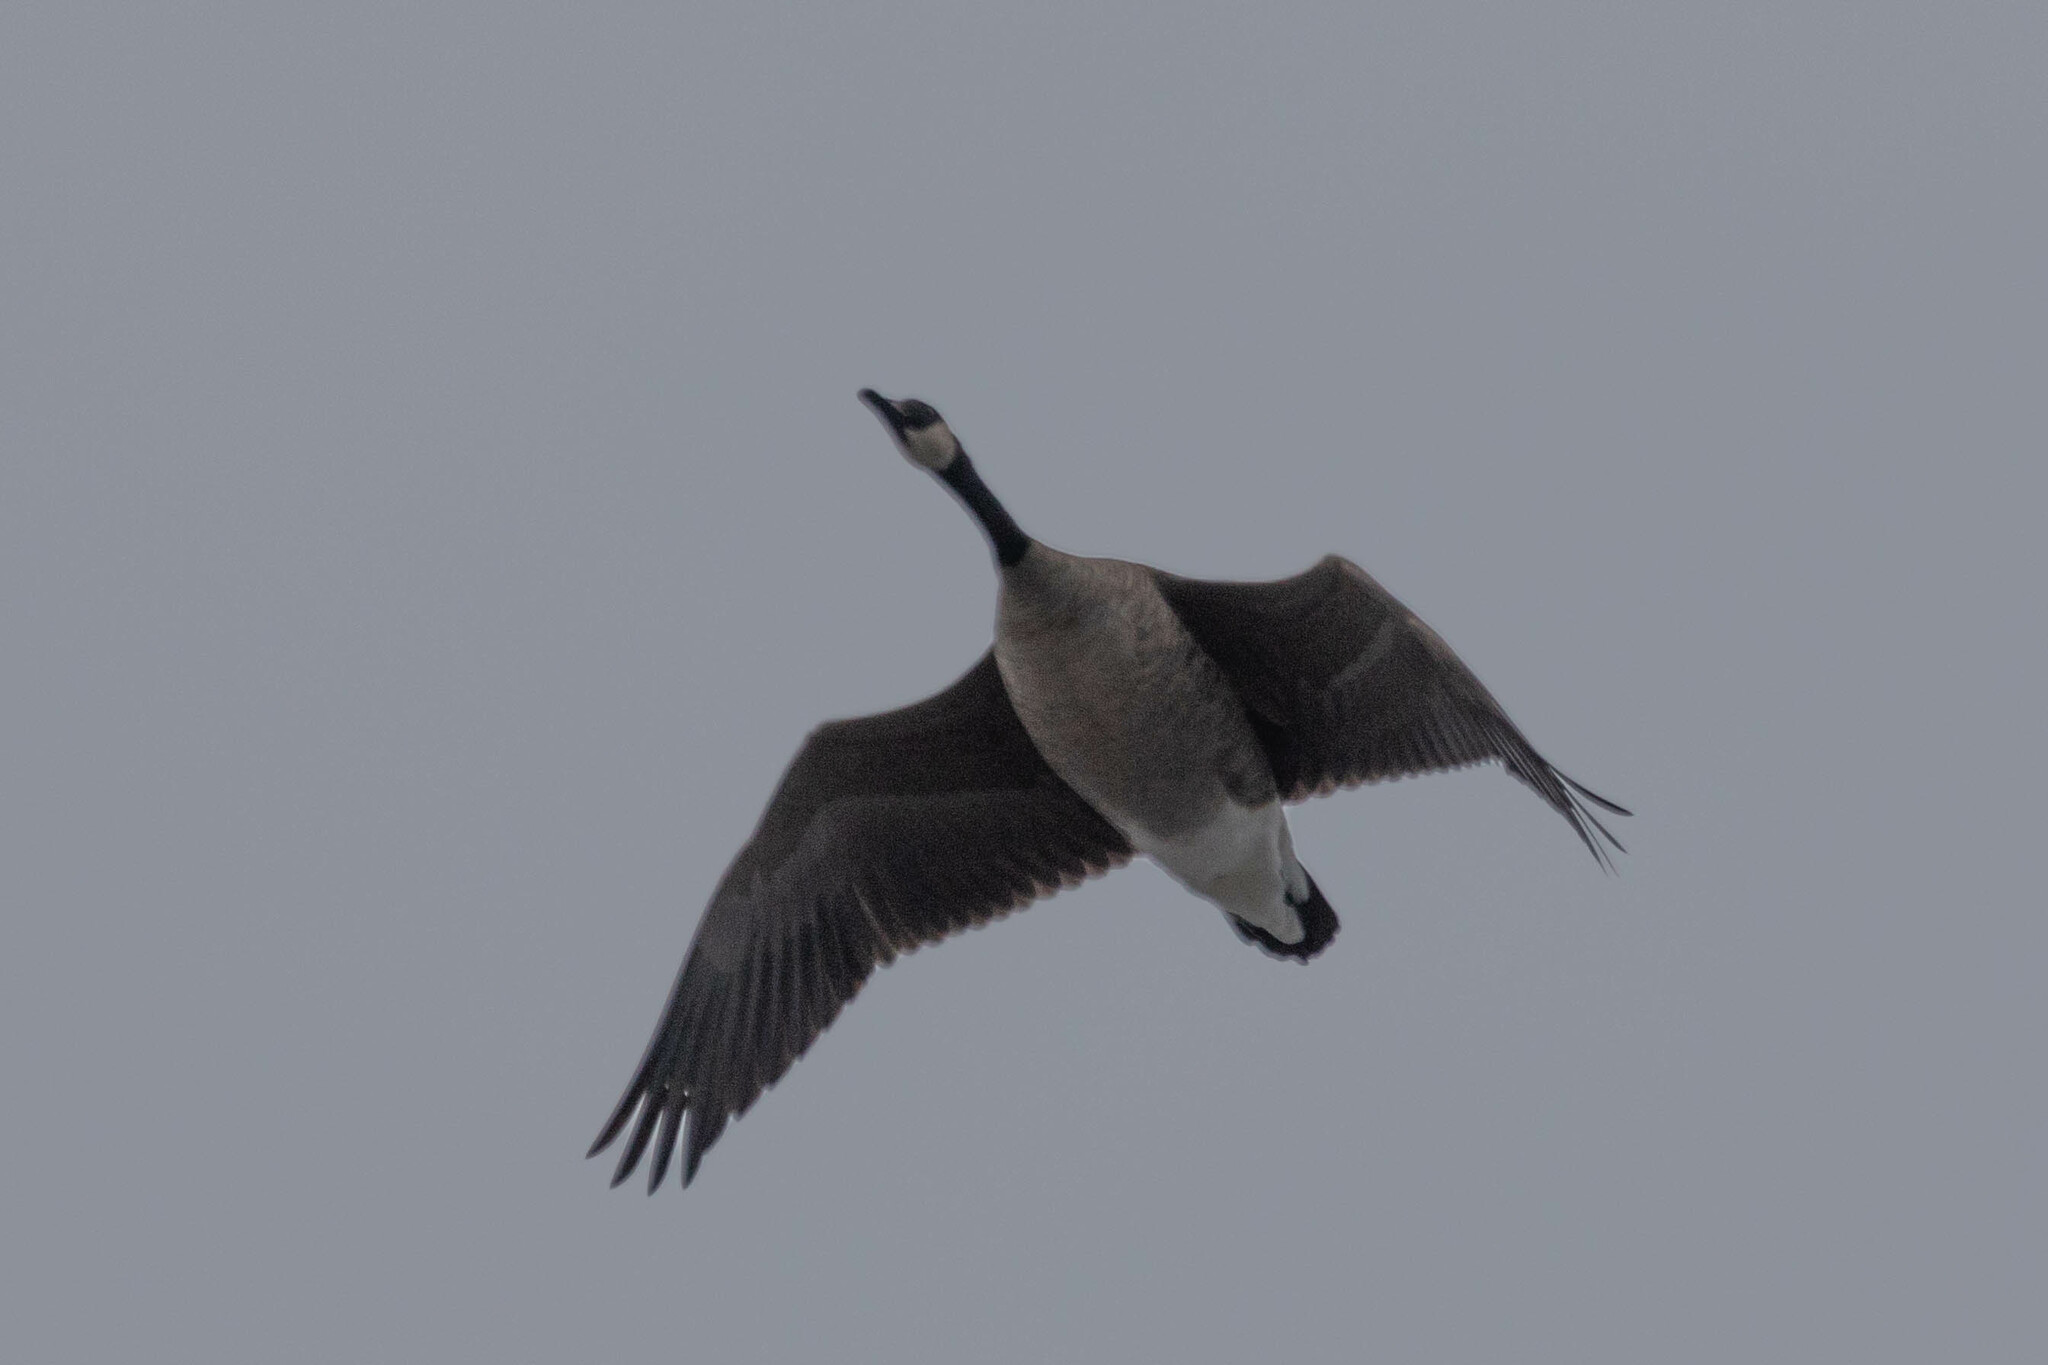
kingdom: Animalia
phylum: Chordata
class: Aves
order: Anseriformes
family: Anatidae
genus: Branta
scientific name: Branta canadensis
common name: Canada goose
